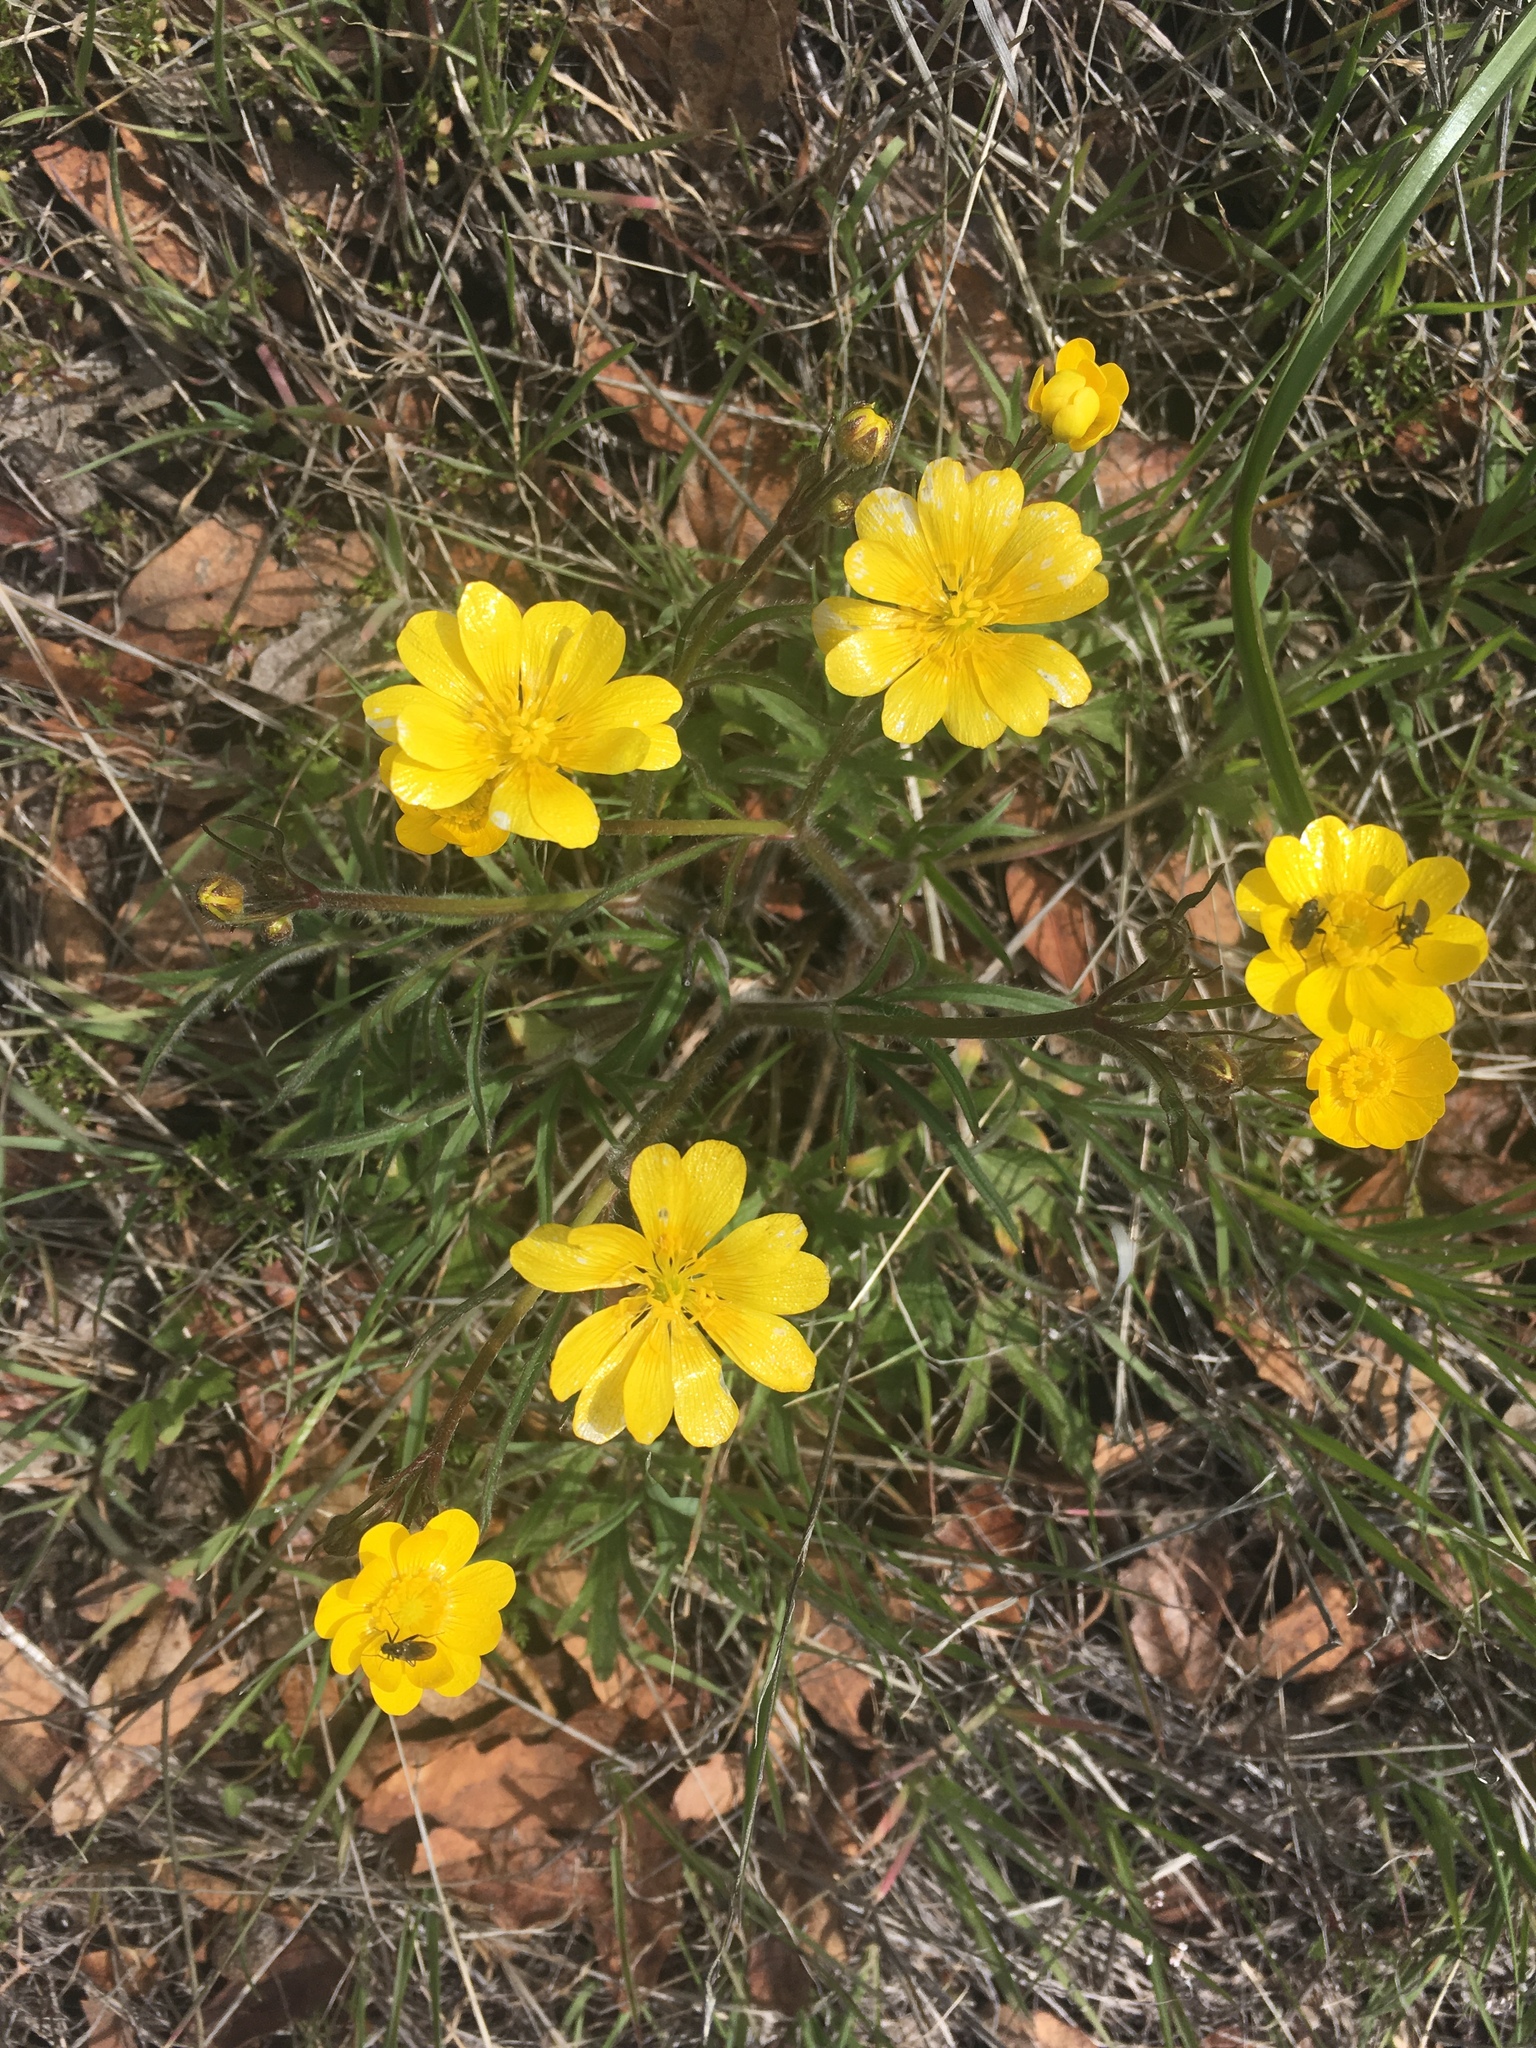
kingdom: Plantae
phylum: Tracheophyta
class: Magnoliopsida
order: Ranunculales
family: Ranunculaceae
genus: Ranunculus
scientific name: Ranunculus californicus
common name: California buttercup
